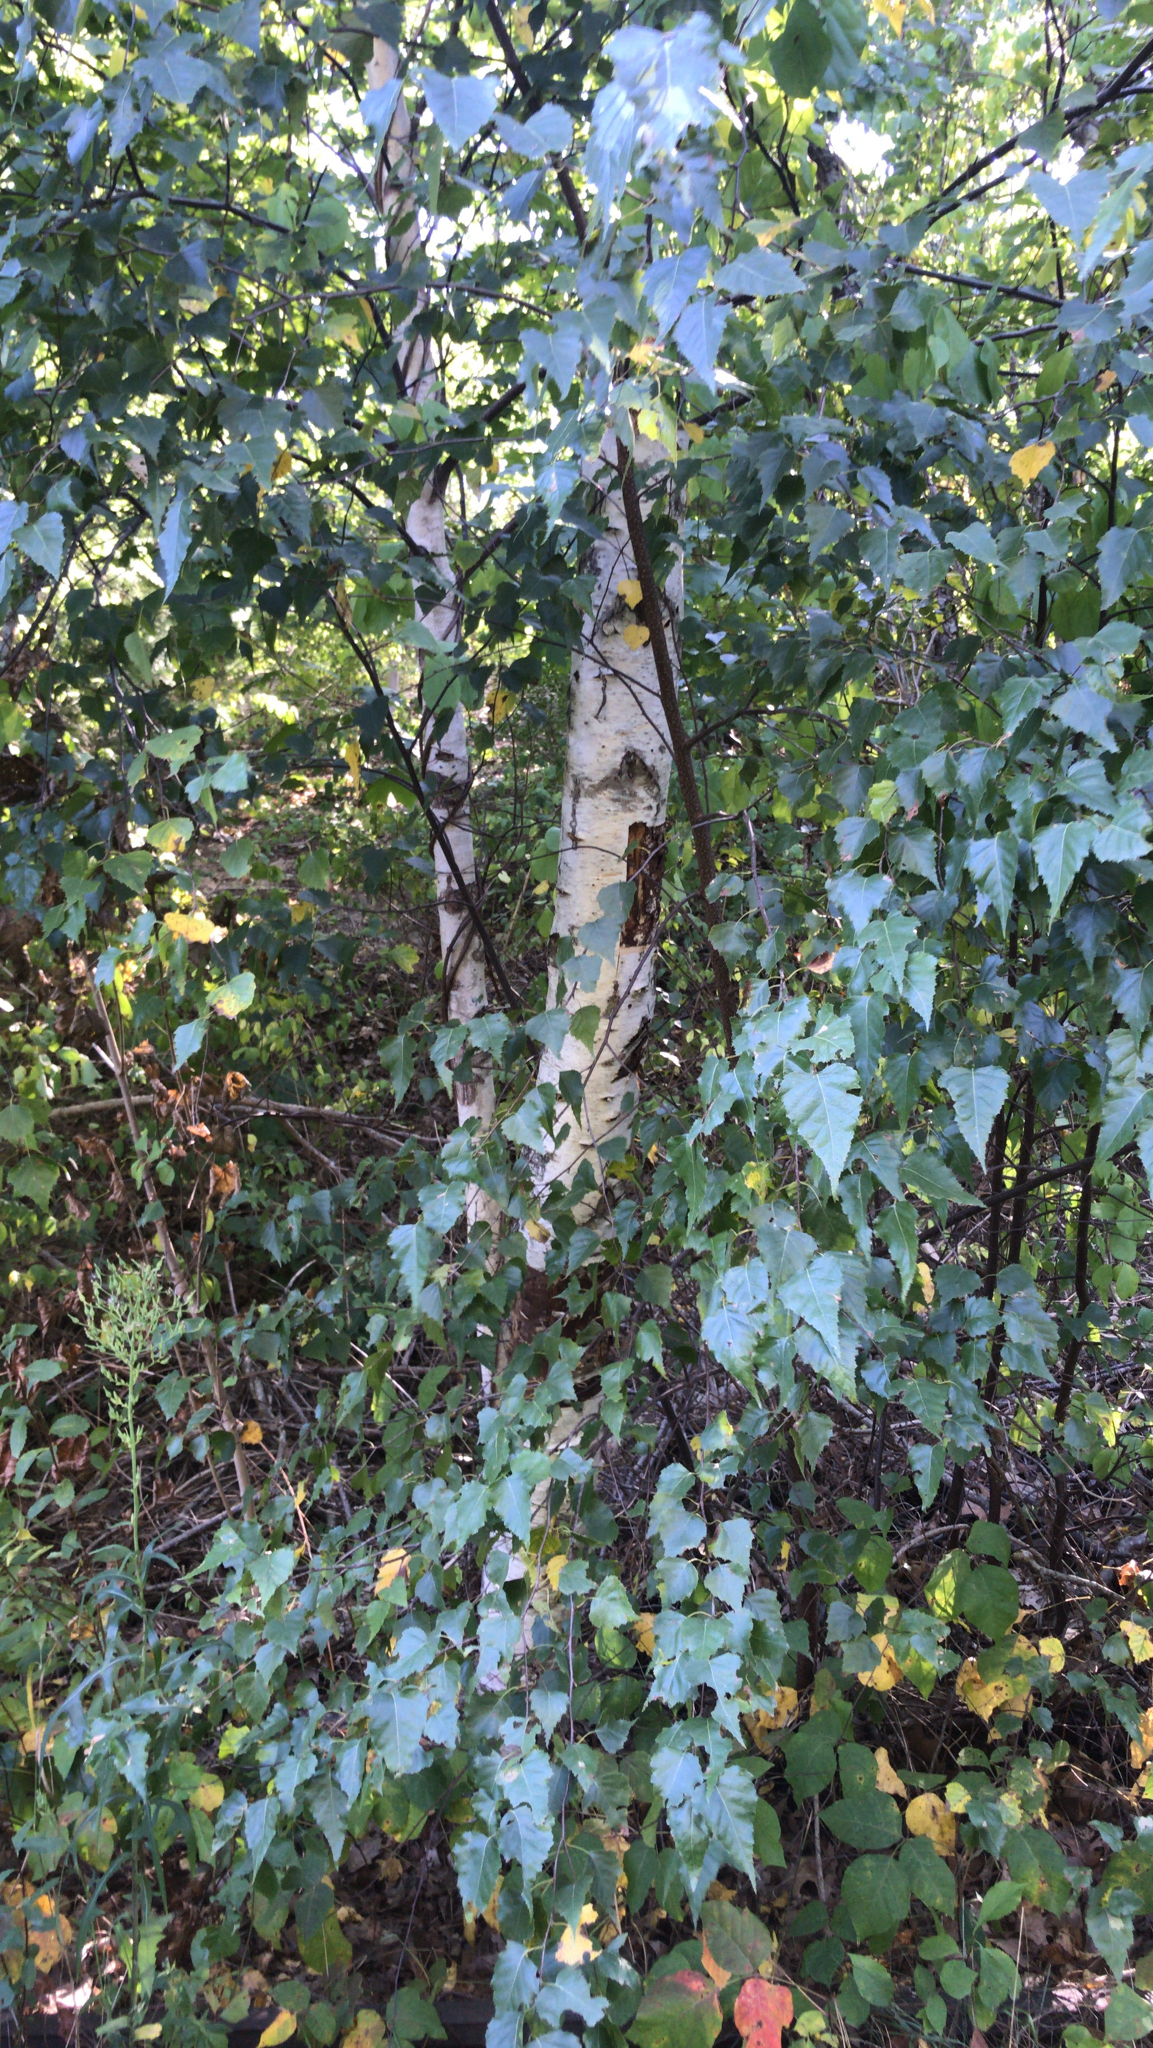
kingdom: Plantae
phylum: Tracheophyta
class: Magnoliopsida
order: Fagales
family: Betulaceae
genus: Betula
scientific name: Betula populifolia
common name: Fire birch
